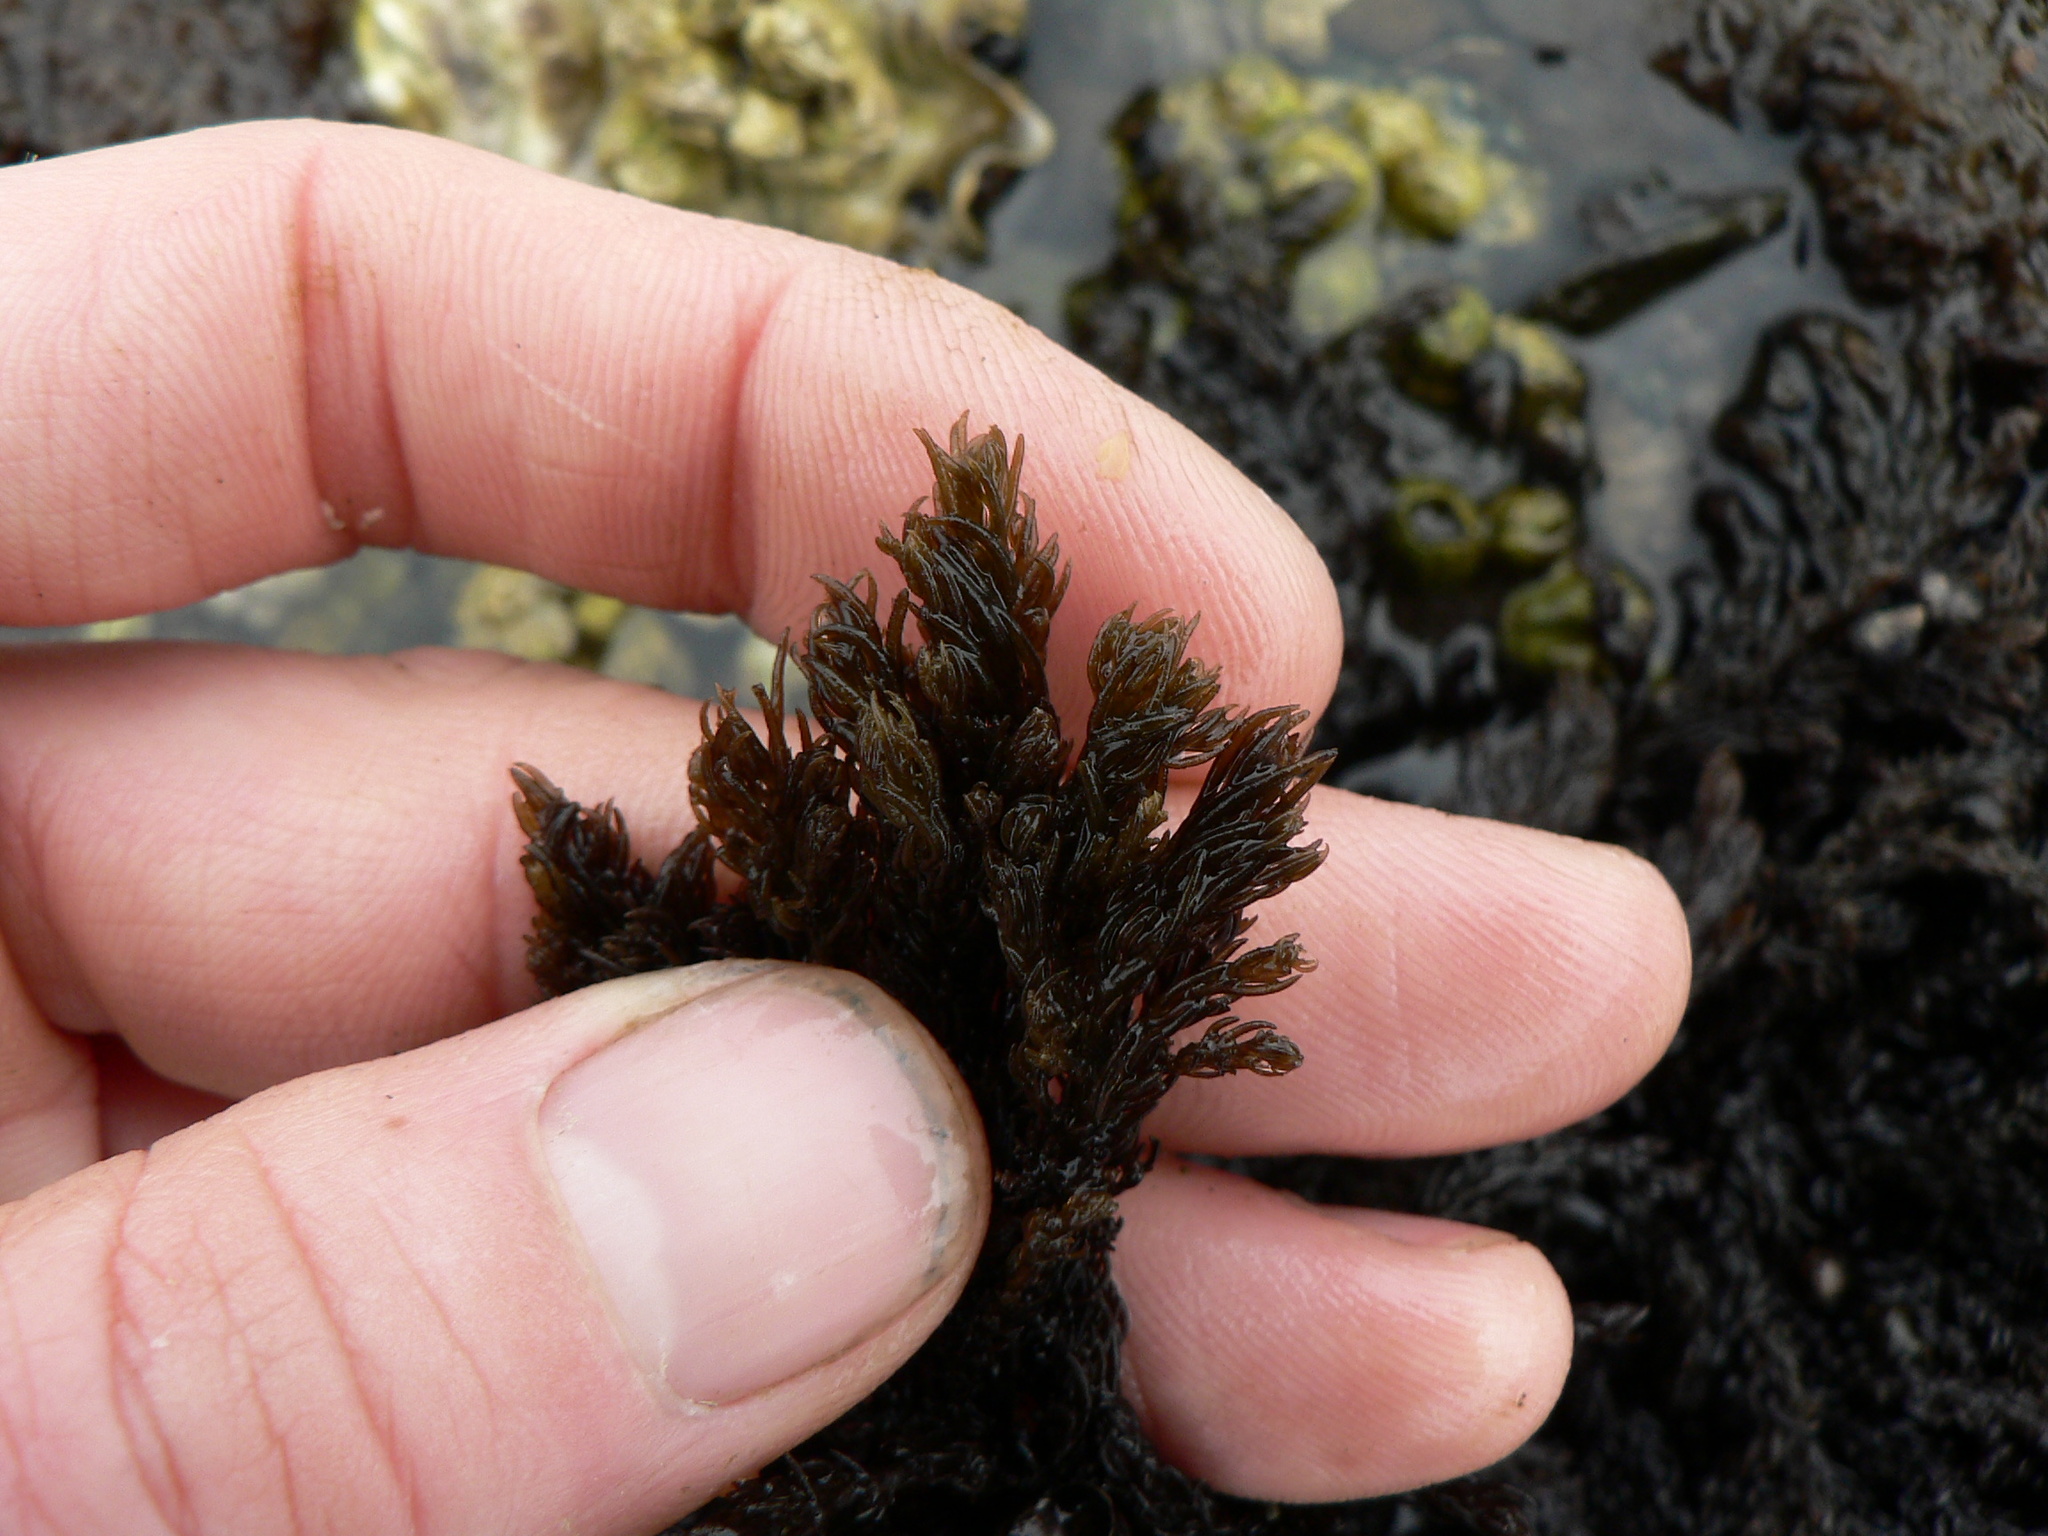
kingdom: Plantae
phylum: Rhodophyta
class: Florideophyceae
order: Ceramiales
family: Rhodomelaceae
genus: Neorhodomela
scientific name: Neorhodomela larix
